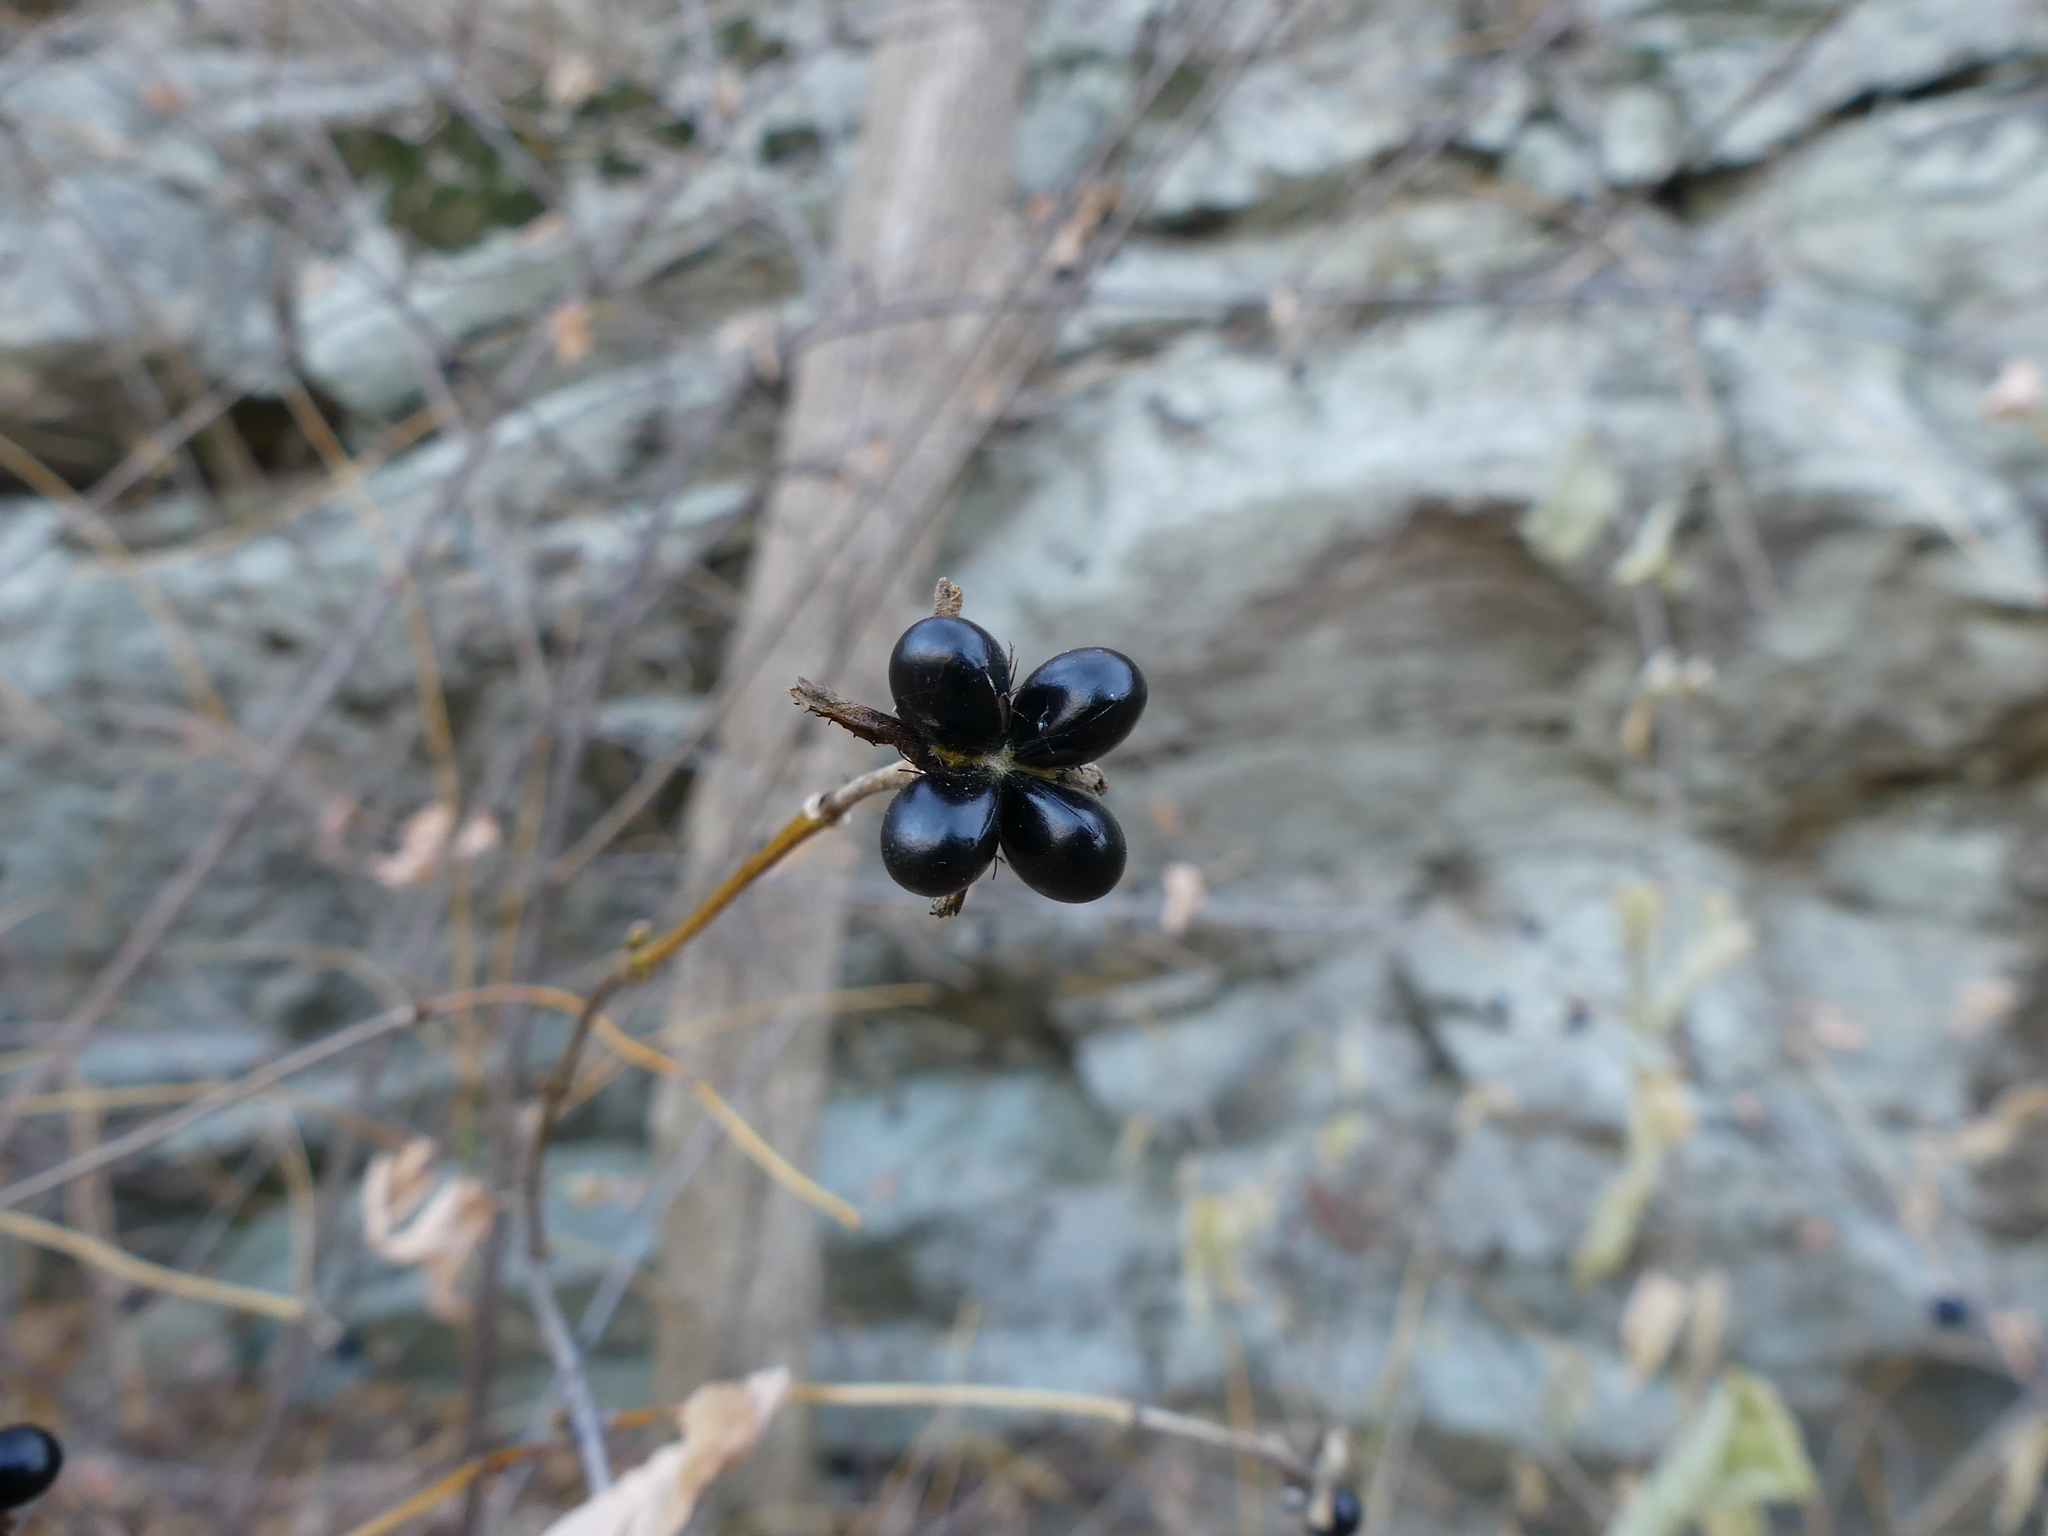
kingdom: Plantae
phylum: Tracheophyta
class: Magnoliopsida
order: Rosales
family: Rosaceae
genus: Rhodotypos
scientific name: Rhodotypos scandens
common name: Jetbead
